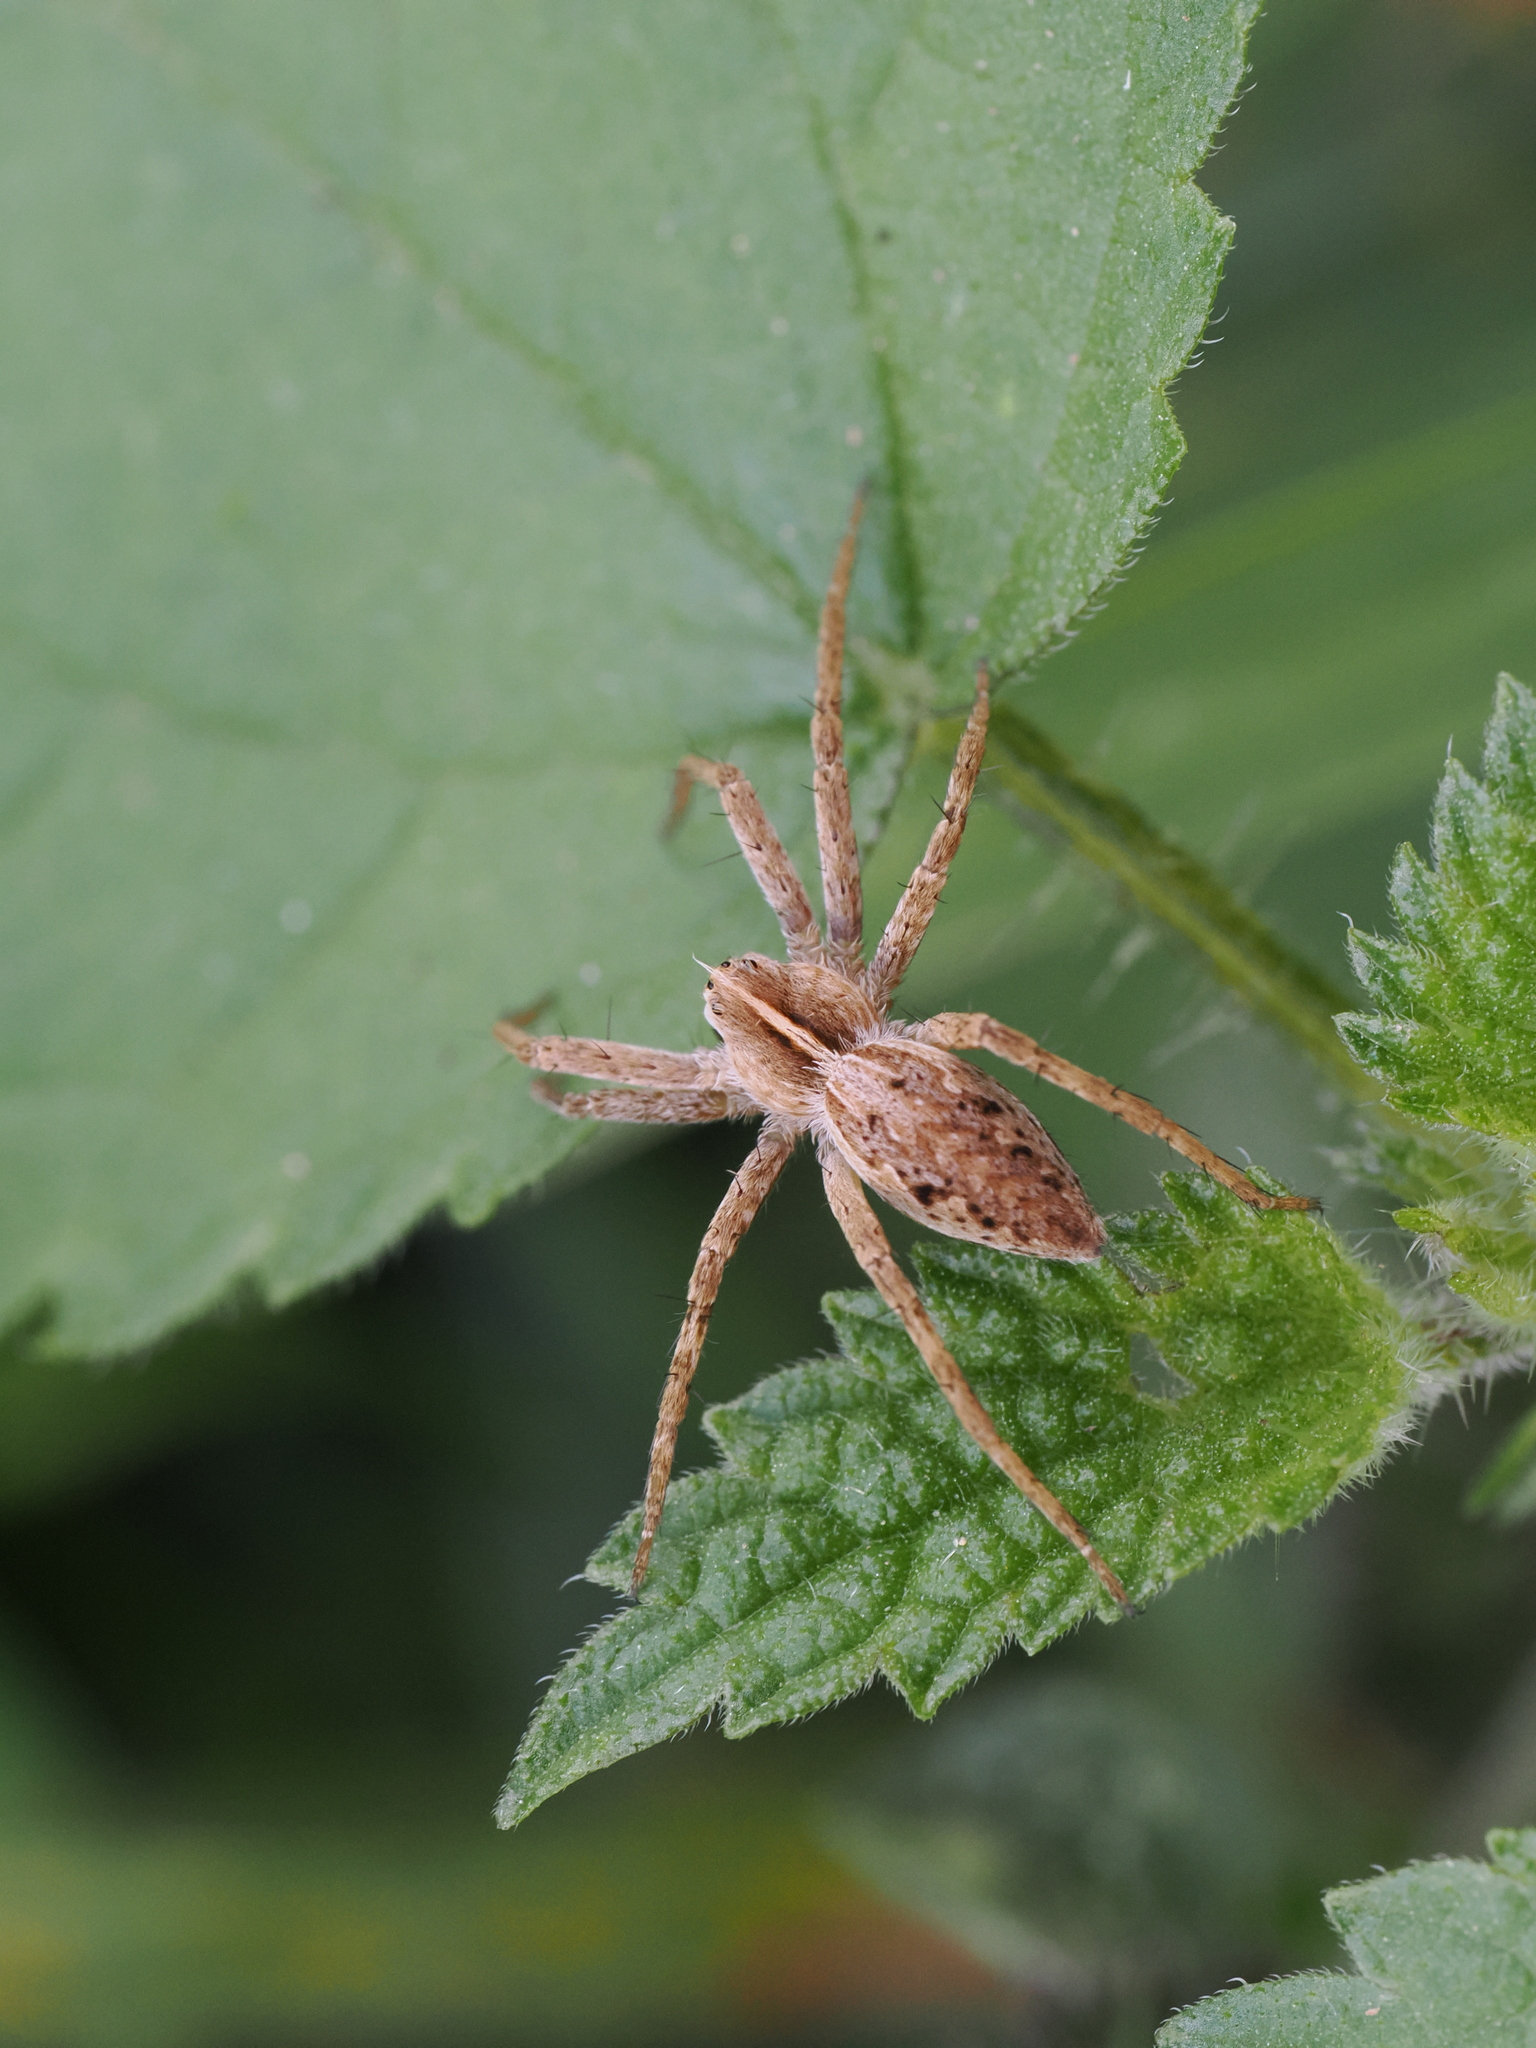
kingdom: Animalia
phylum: Arthropoda
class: Arachnida
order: Araneae
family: Pisauridae
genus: Pisaura
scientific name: Pisaura mirabilis
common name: Tent spider
